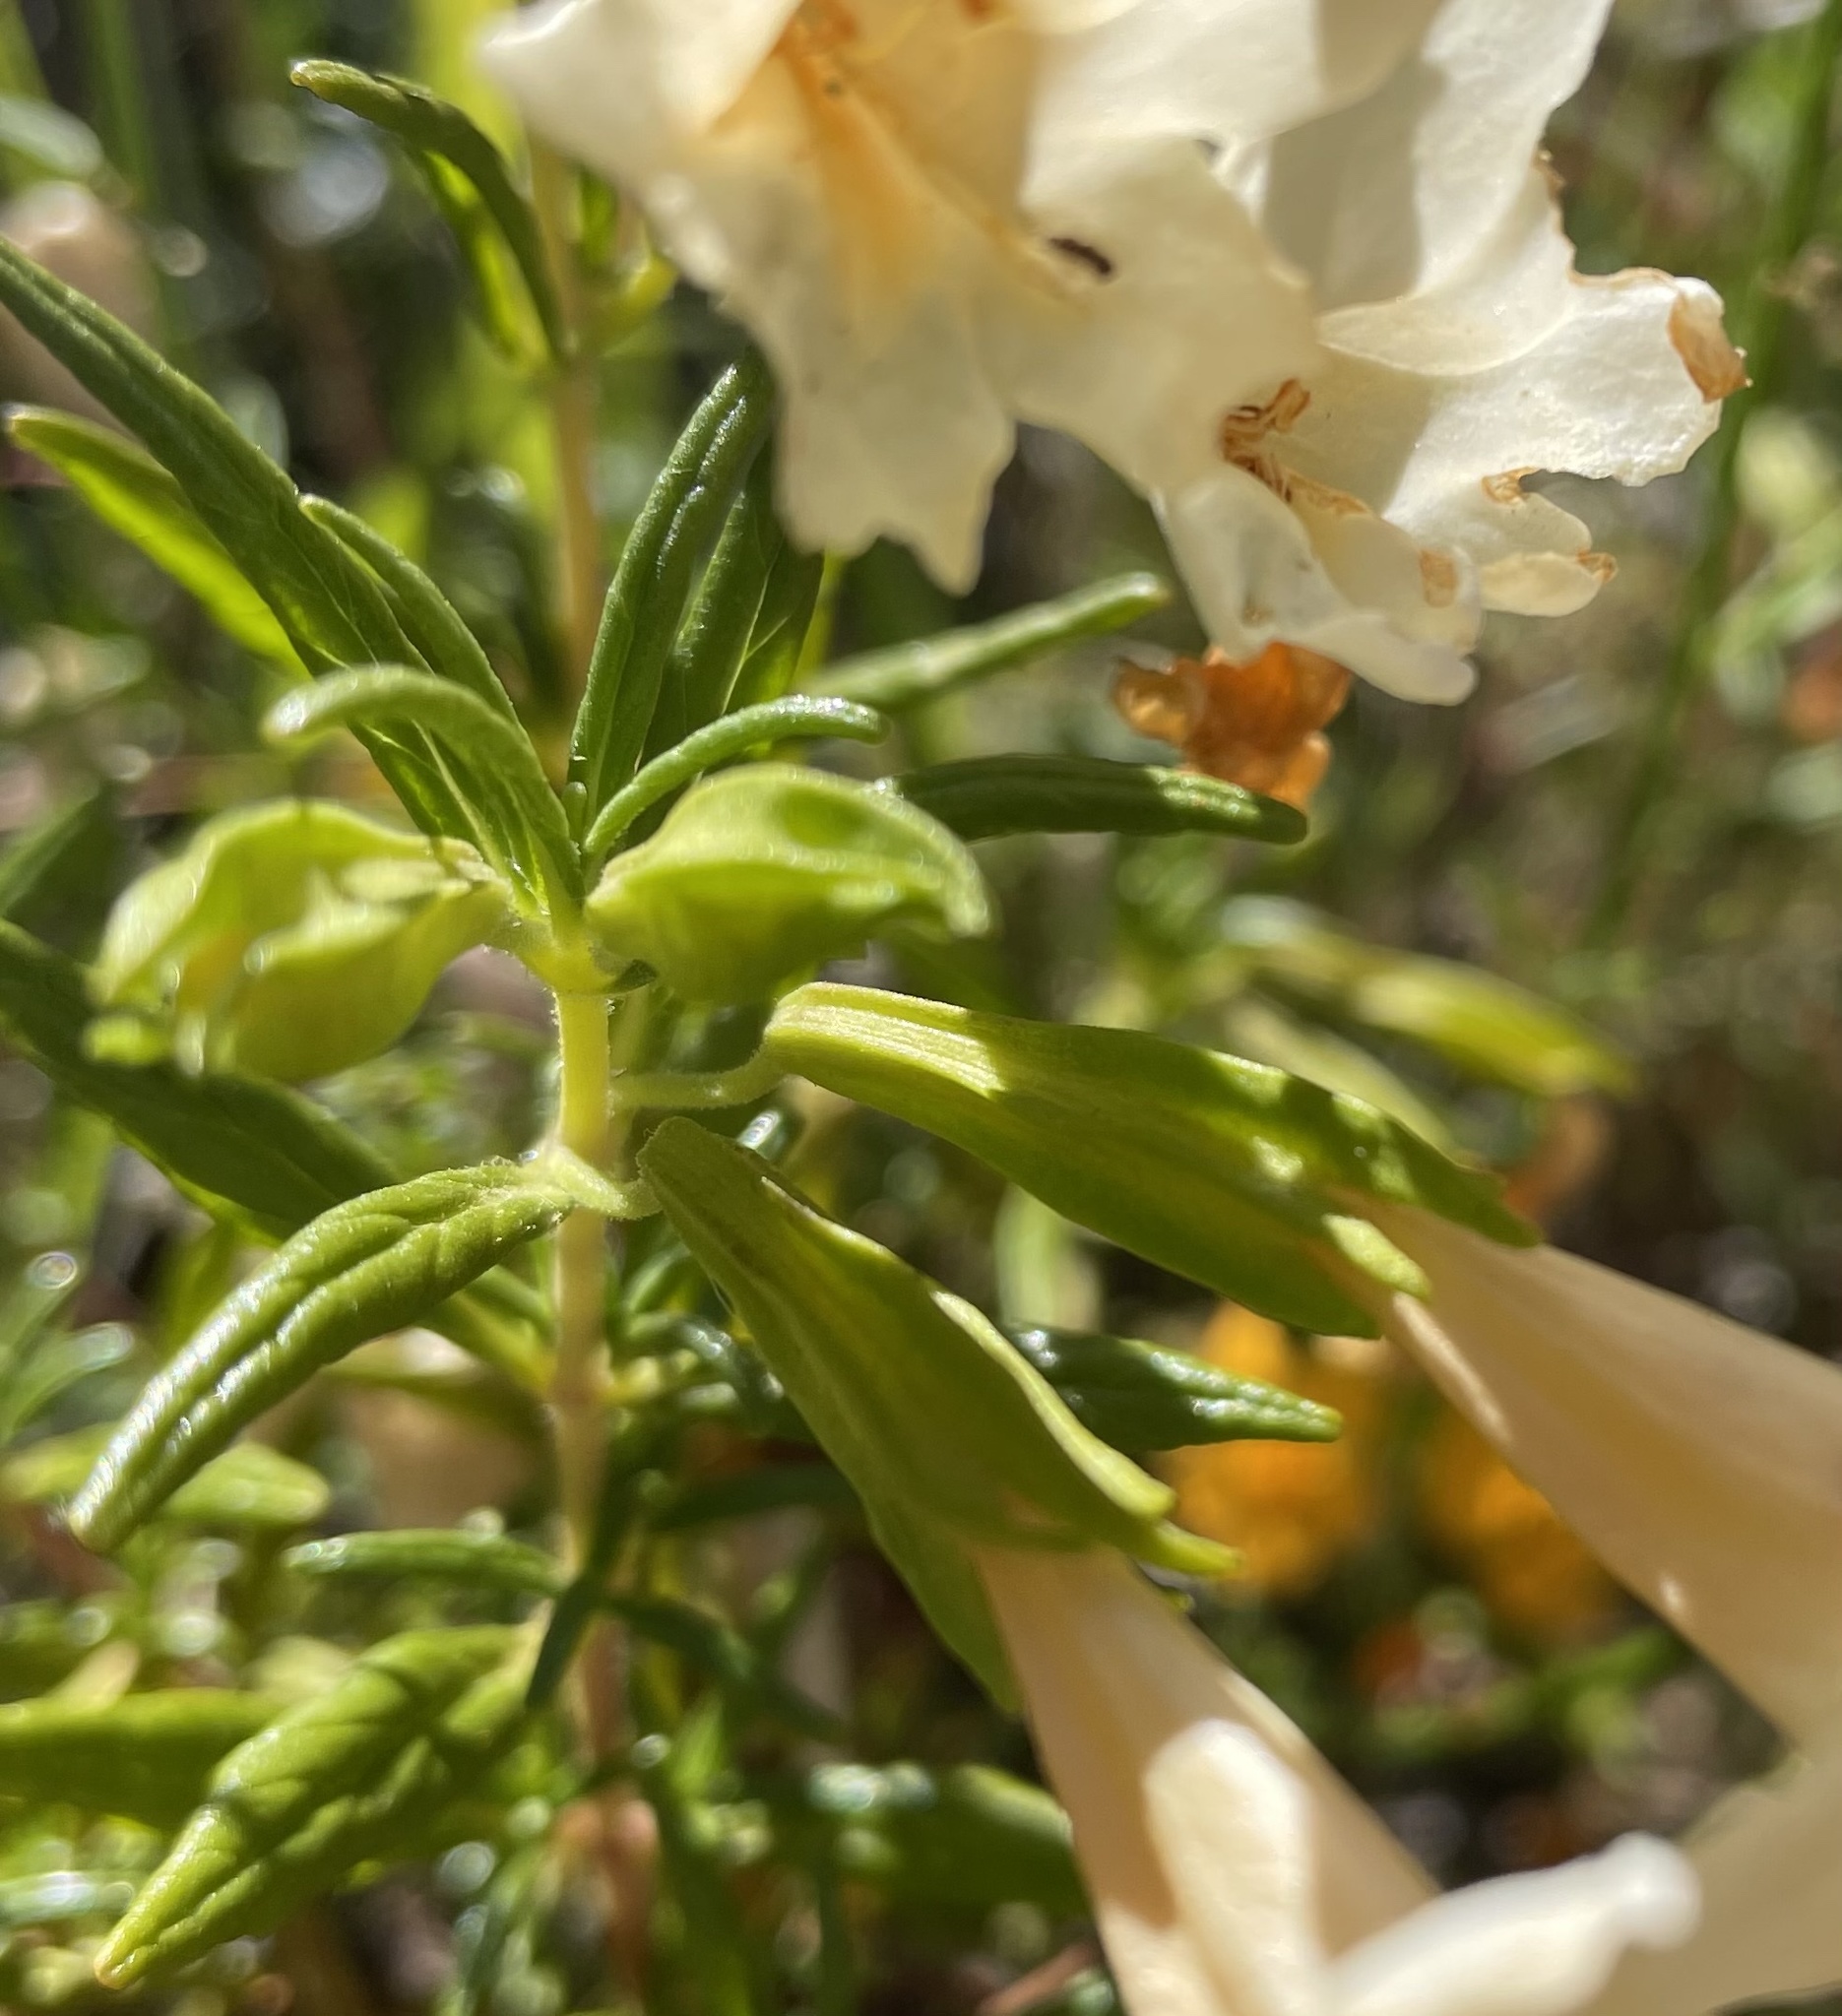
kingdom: Plantae
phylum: Tracheophyta
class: Magnoliopsida
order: Lamiales
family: Phrymaceae
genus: Diplacus
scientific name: Diplacus linearis
